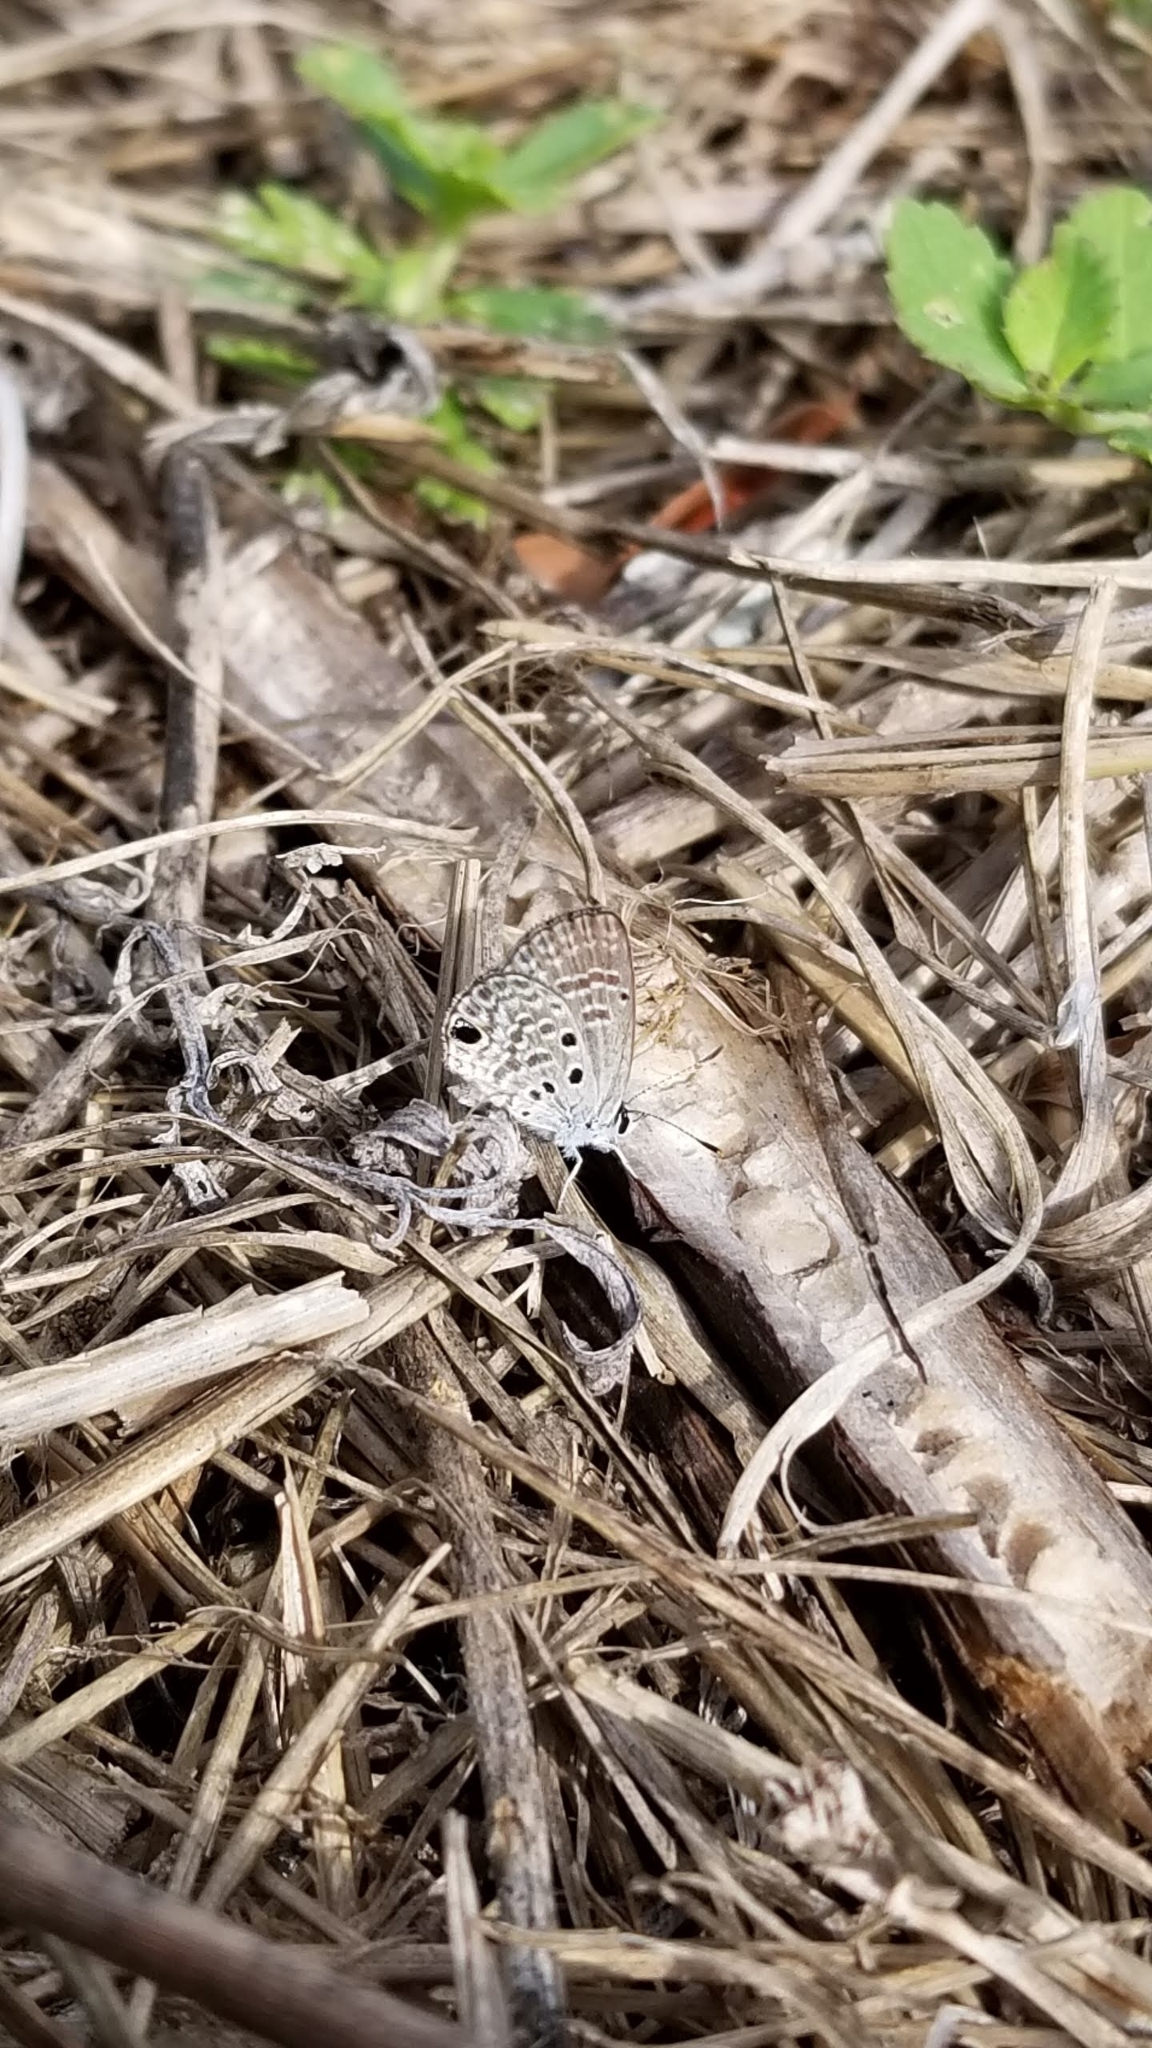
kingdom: Animalia
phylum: Arthropoda
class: Insecta
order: Lepidoptera
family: Lycaenidae
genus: Hemiargus
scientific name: Hemiargus ceraunus
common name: Ceraunus blue
